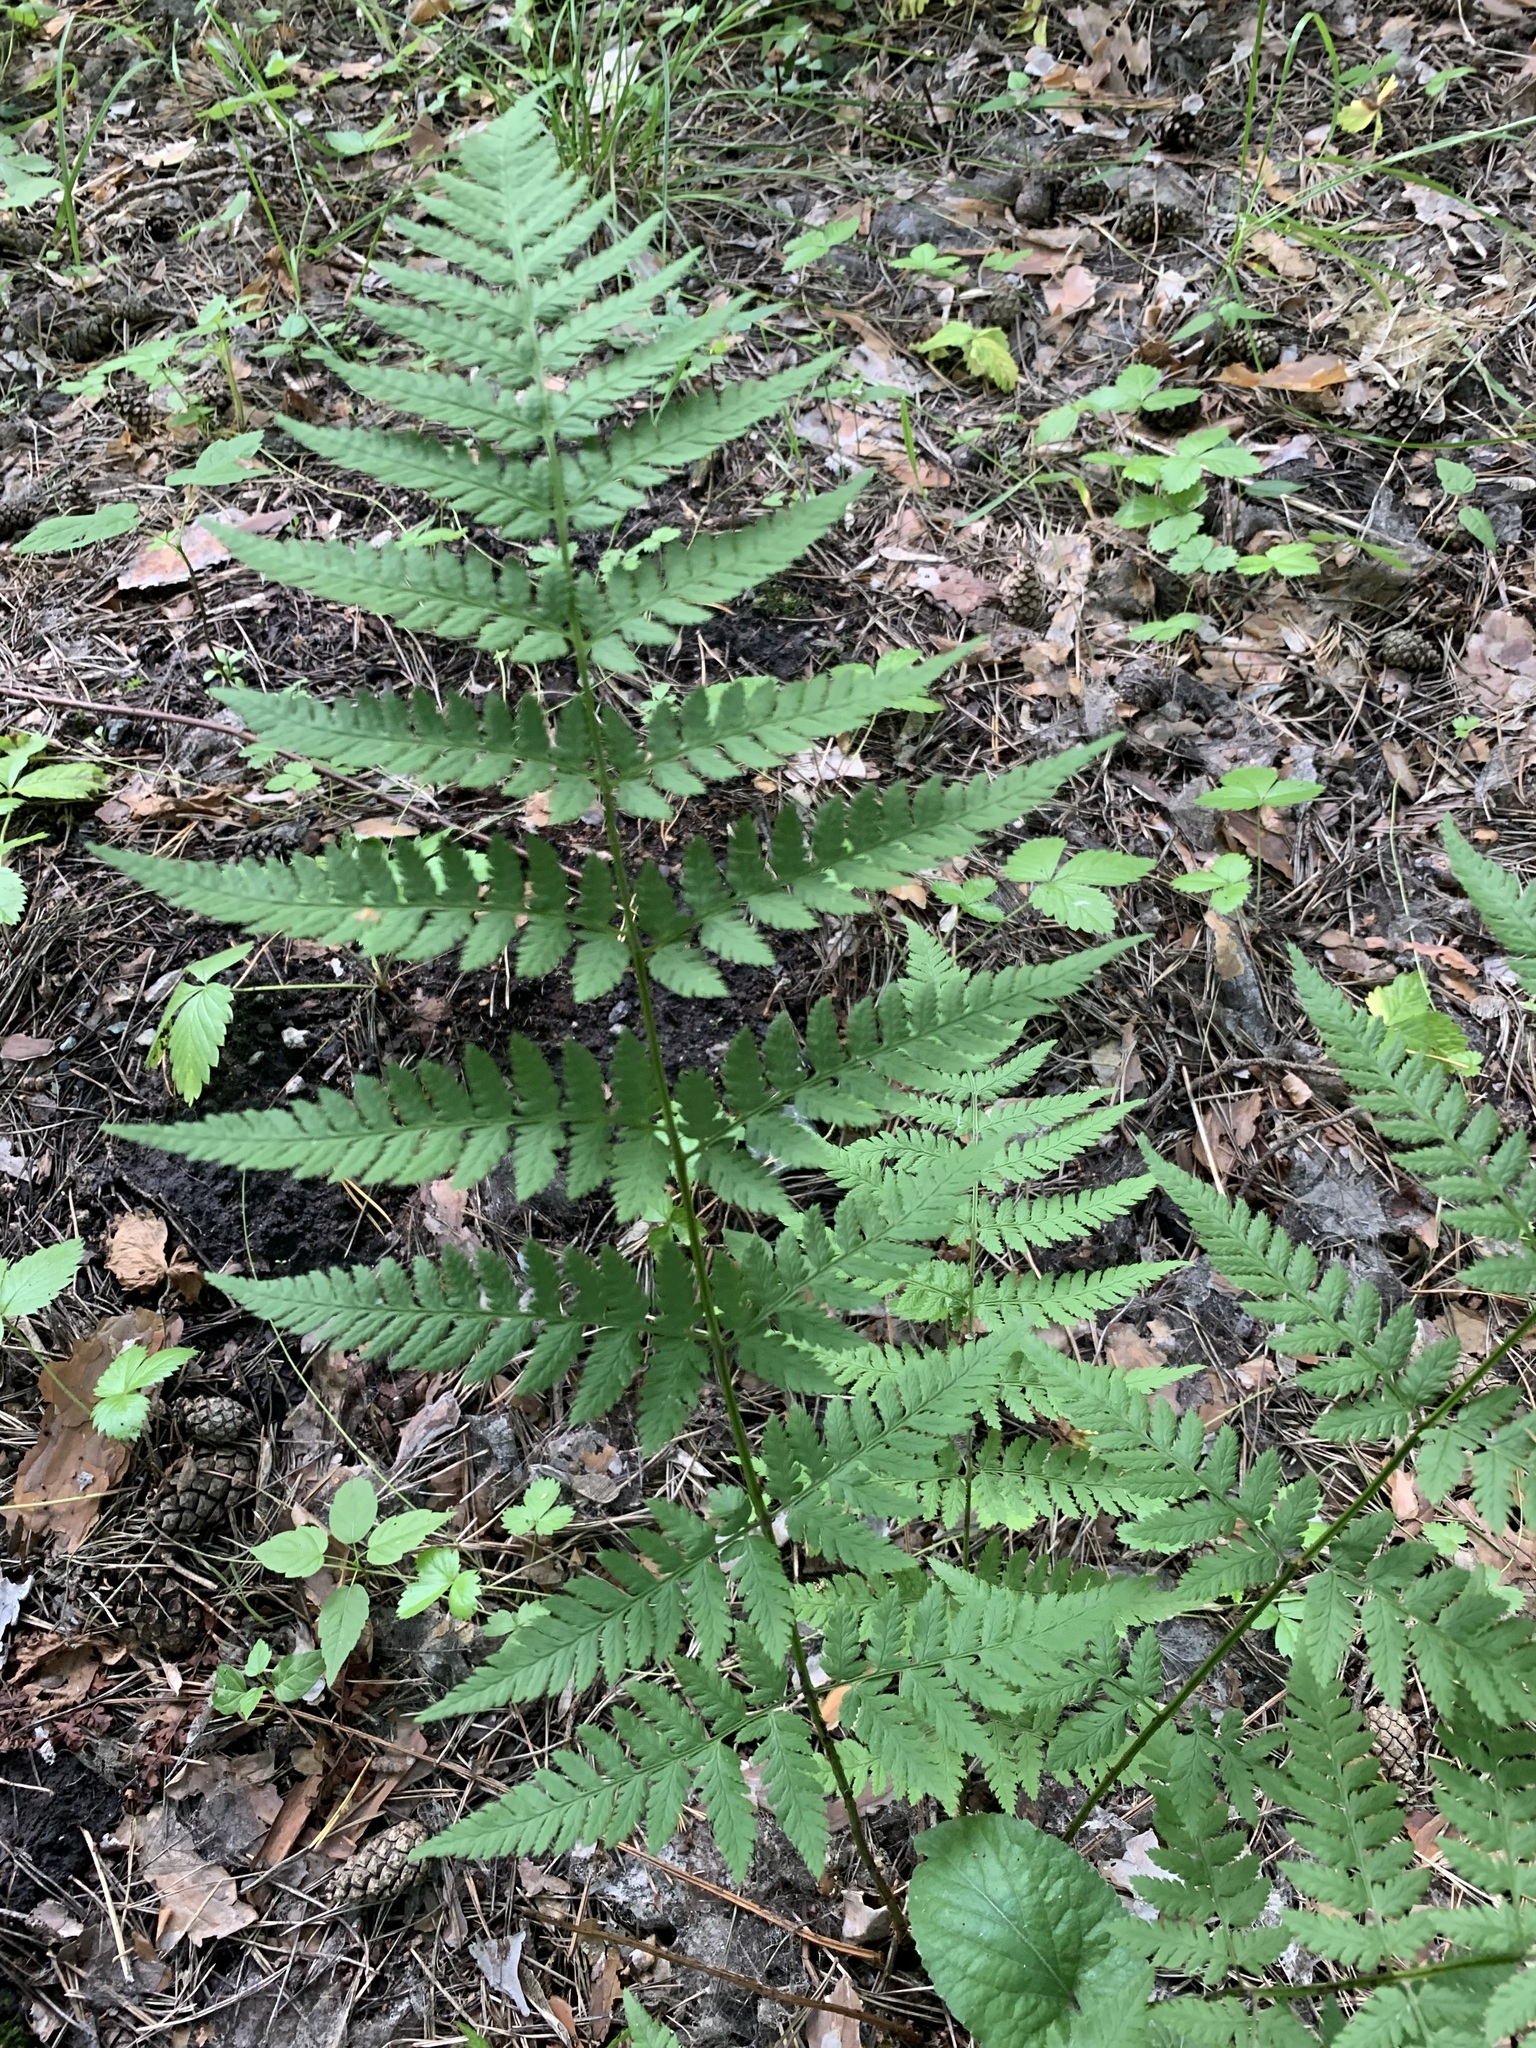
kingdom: Plantae
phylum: Tracheophyta
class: Polypodiopsida
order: Polypodiales
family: Dryopteridaceae
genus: Dryopteris
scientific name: Dryopteris carthusiana
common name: Narrow buckler-fern
